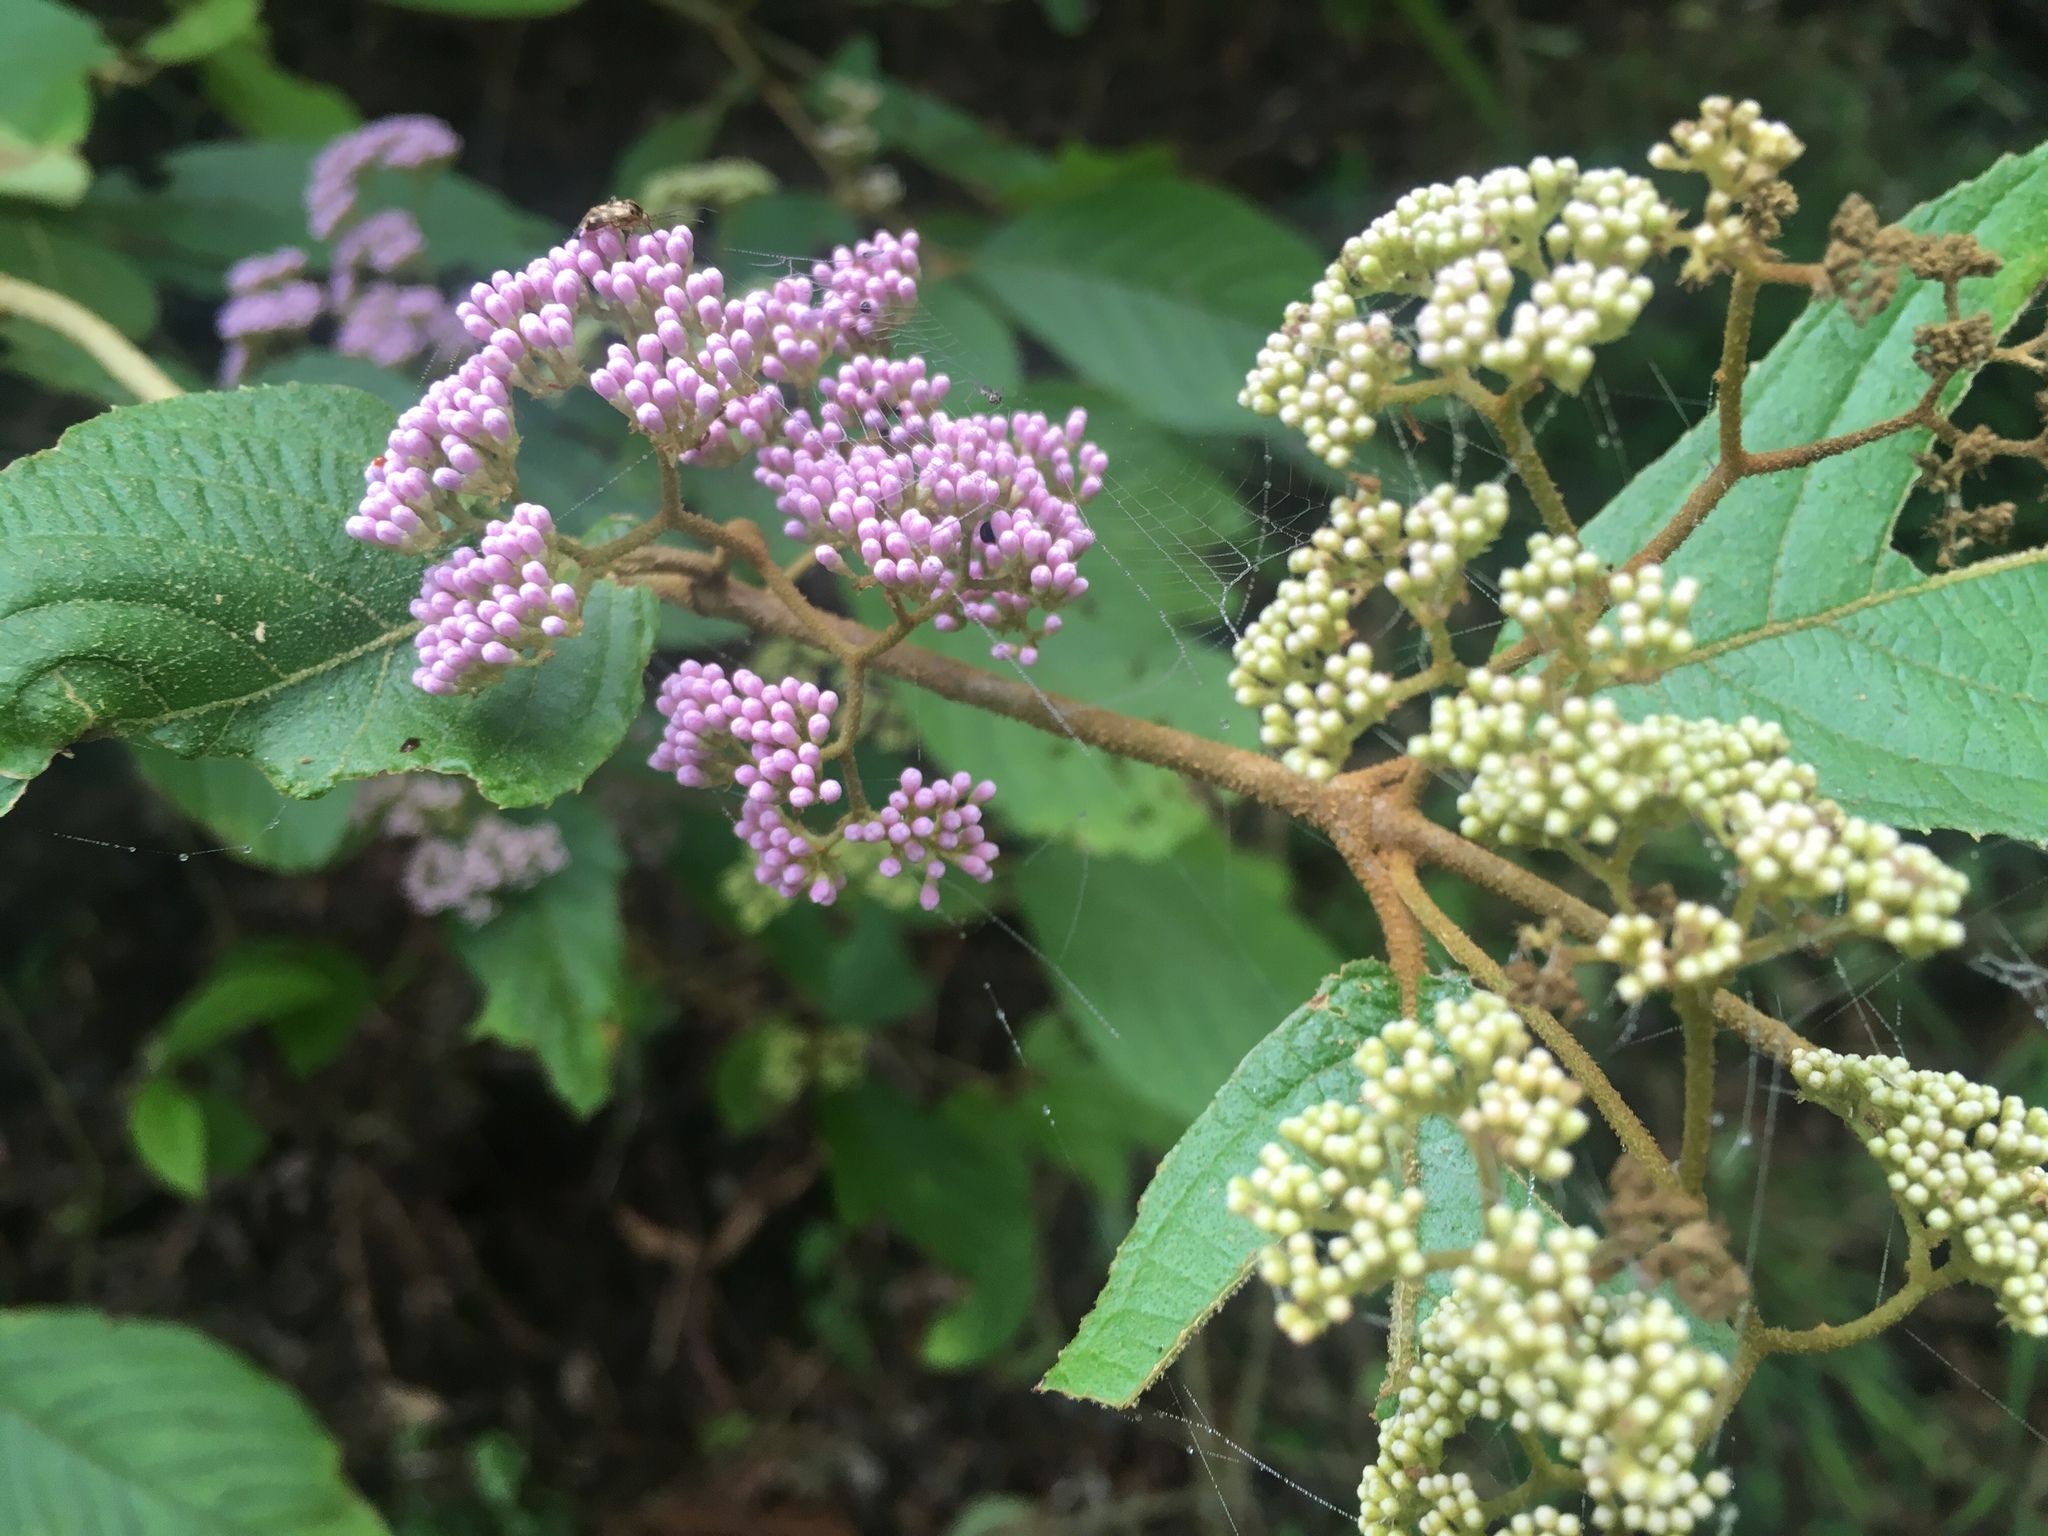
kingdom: Plantae
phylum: Tracheophyta
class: Magnoliopsida
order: Lamiales
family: Lamiaceae
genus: Callicarpa
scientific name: Callicarpa pedunculata
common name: Velvetleaf
